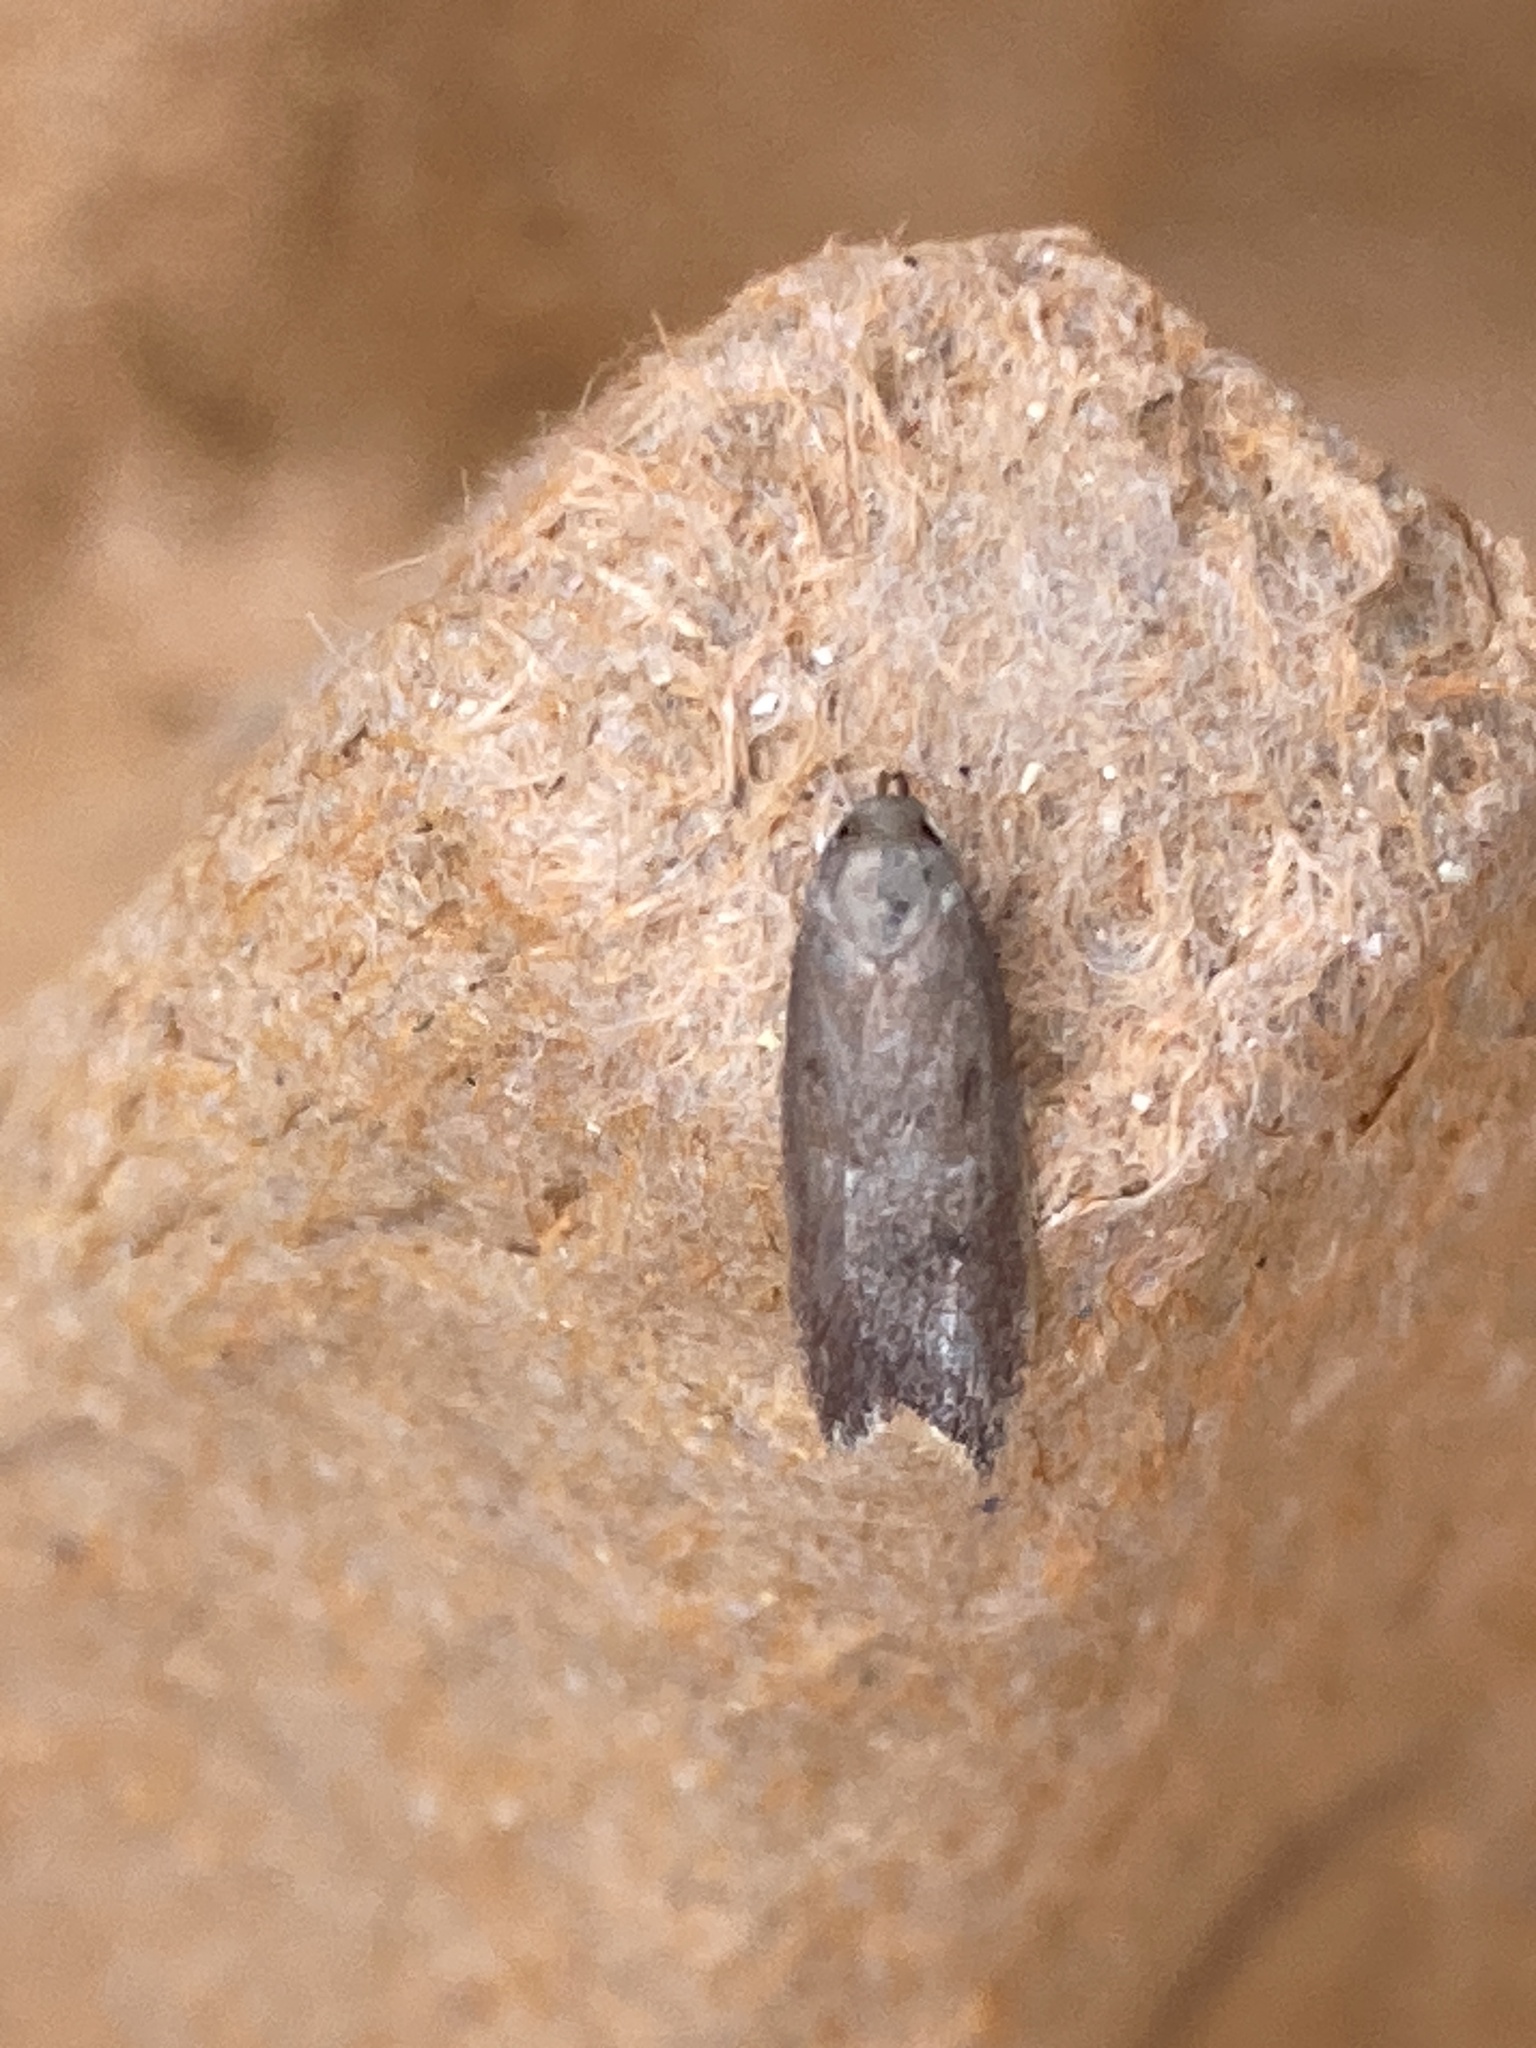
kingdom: Animalia
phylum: Arthropoda
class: Insecta
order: Lepidoptera
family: Oecophoridae
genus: Tachystola
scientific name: Tachystola acroxantha
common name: Ruddy streak
